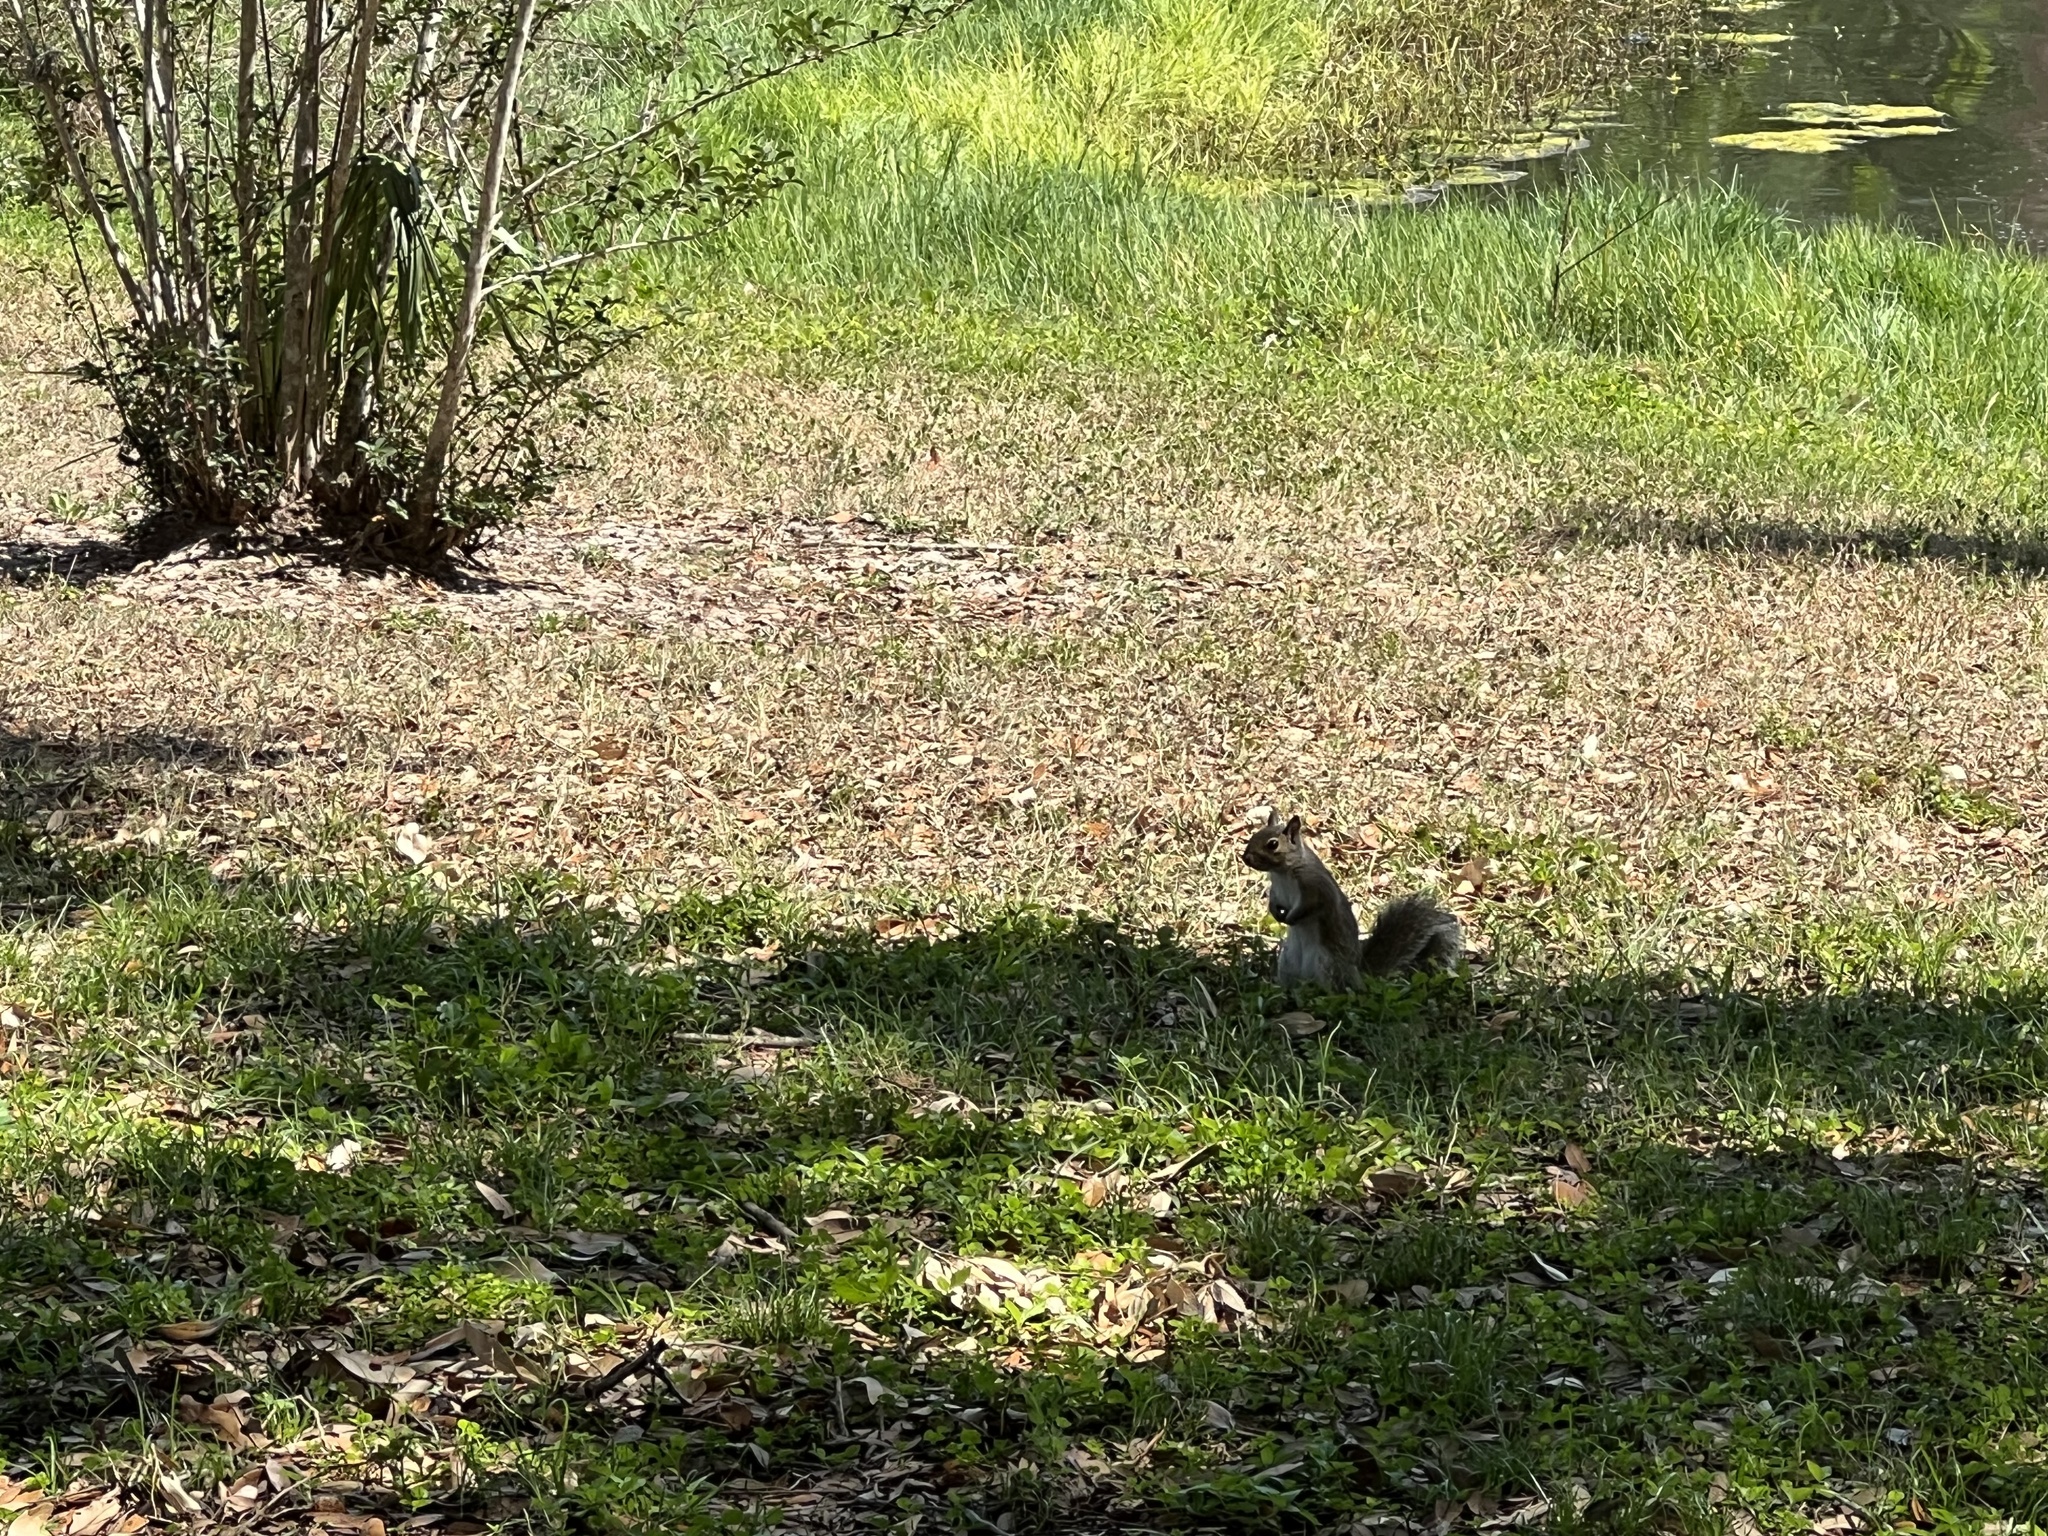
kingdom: Animalia
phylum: Chordata
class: Mammalia
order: Rodentia
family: Sciuridae
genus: Sciurus
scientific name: Sciurus carolinensis
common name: Eastern gray squirrel
